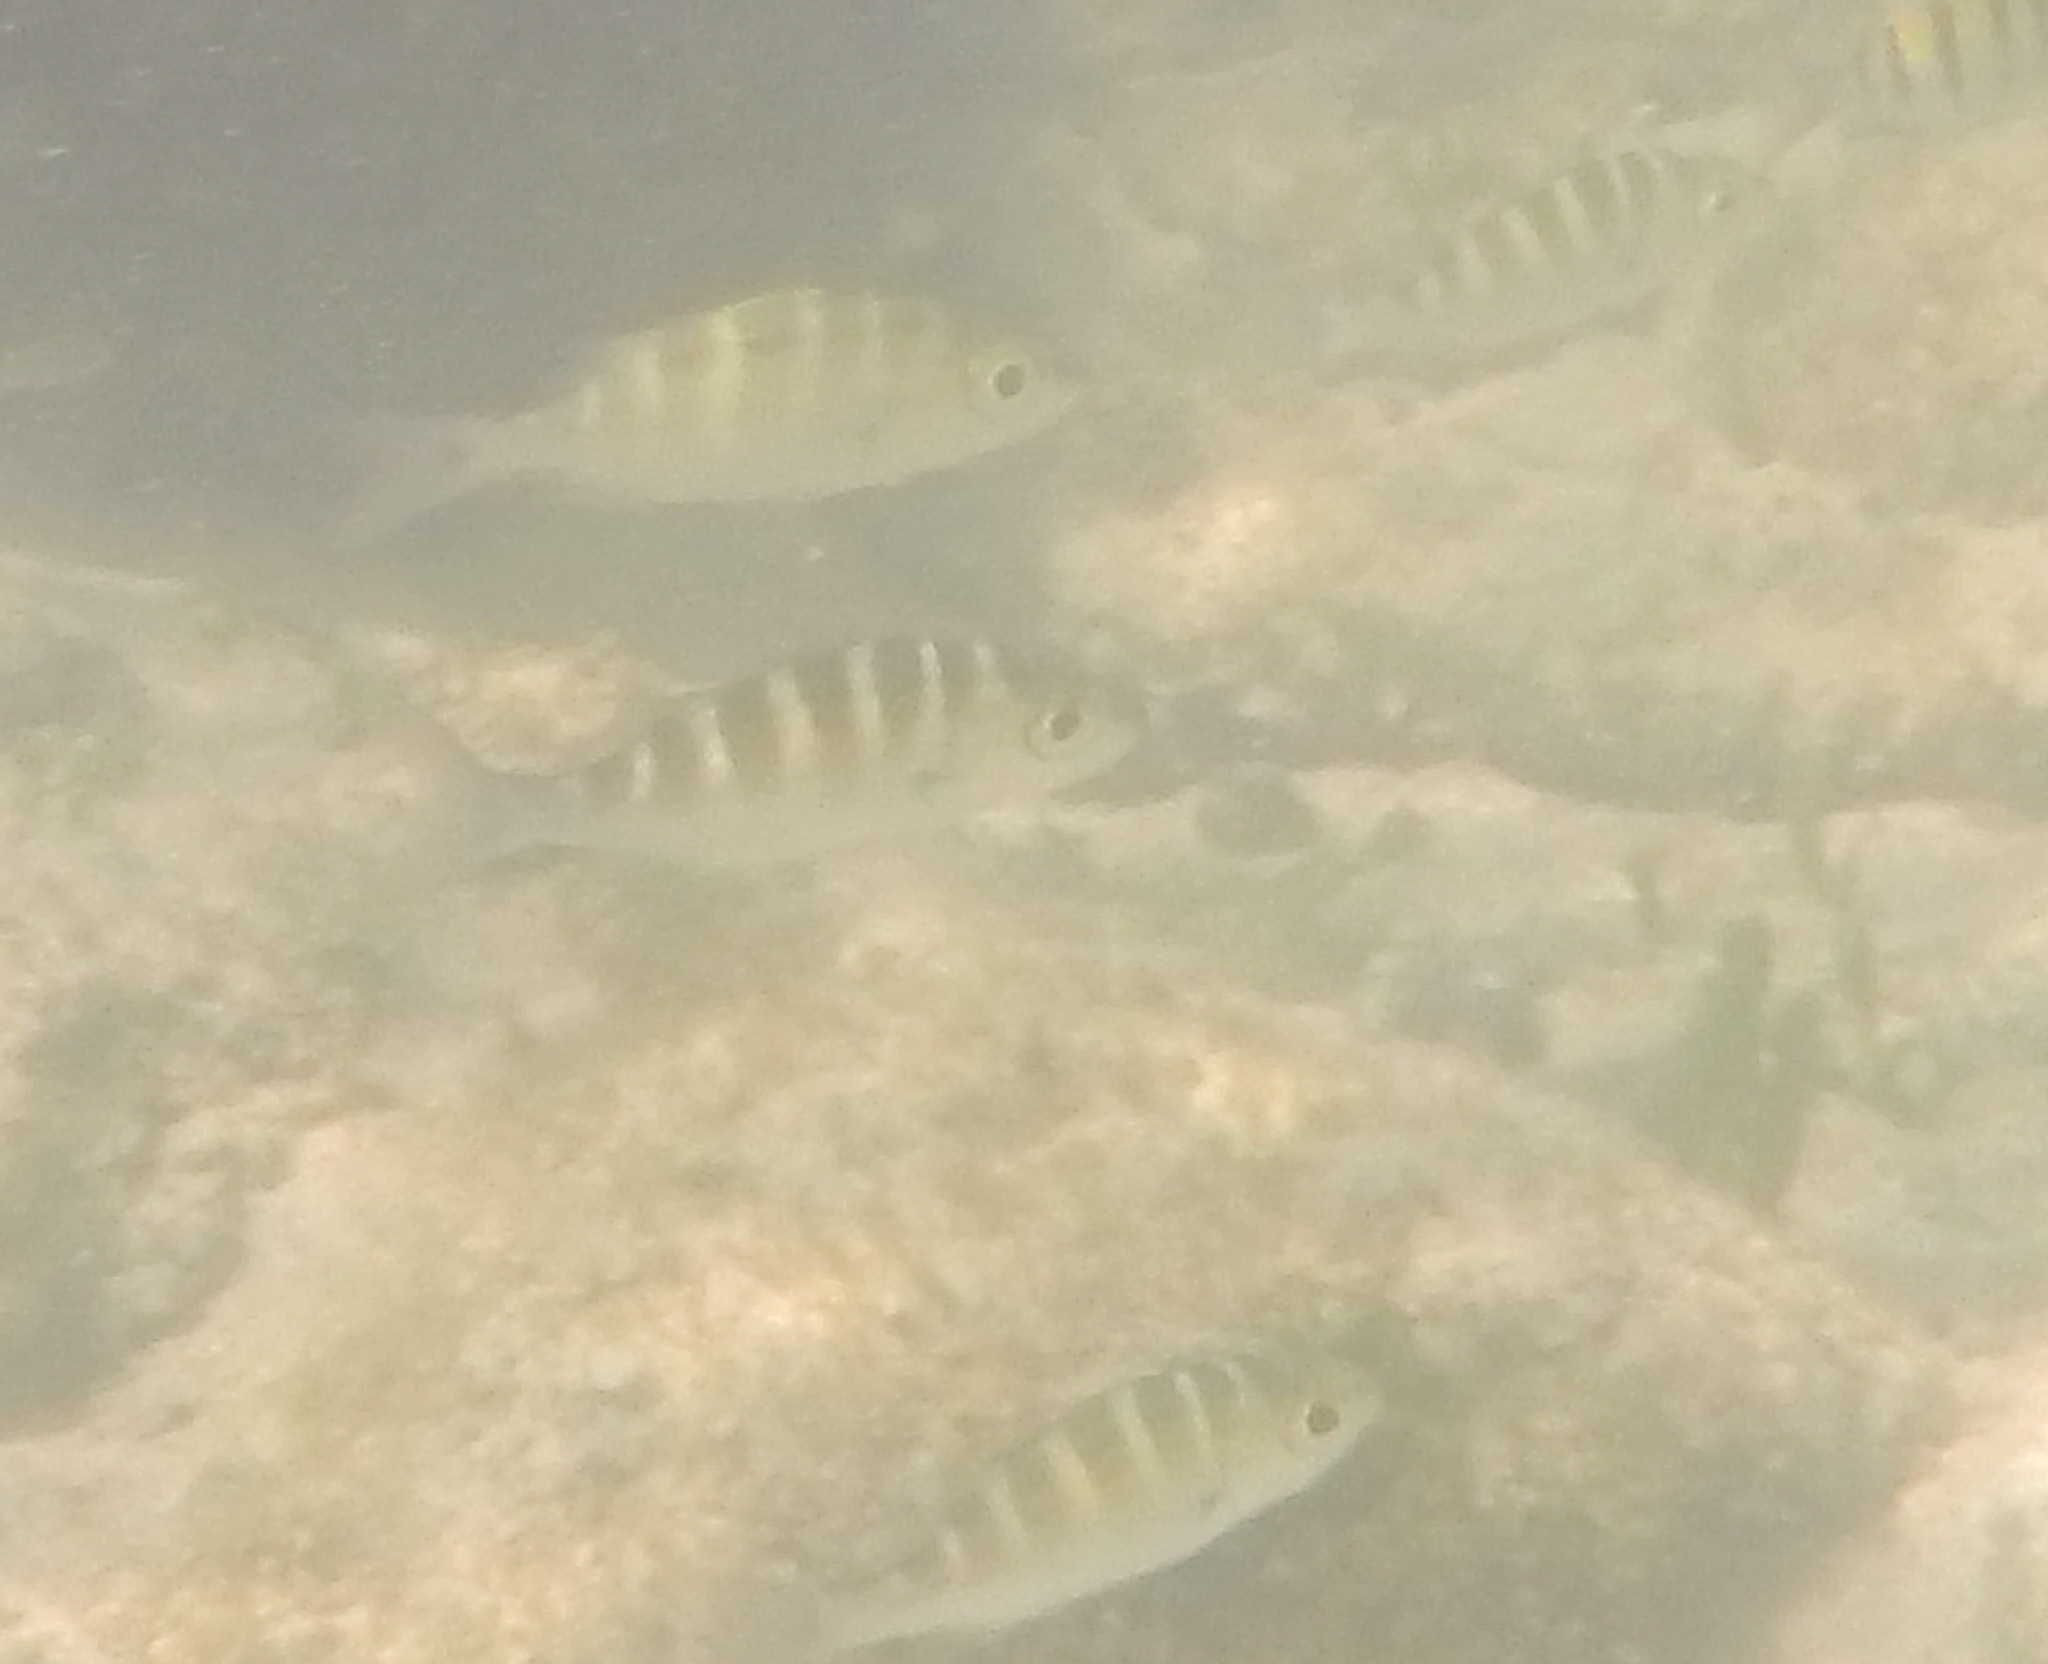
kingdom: Animalia
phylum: Chordata
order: Perciformes
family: Haemulidae
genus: Haemulon
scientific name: Haemulon sexfasciatum
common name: Graybar grunt
